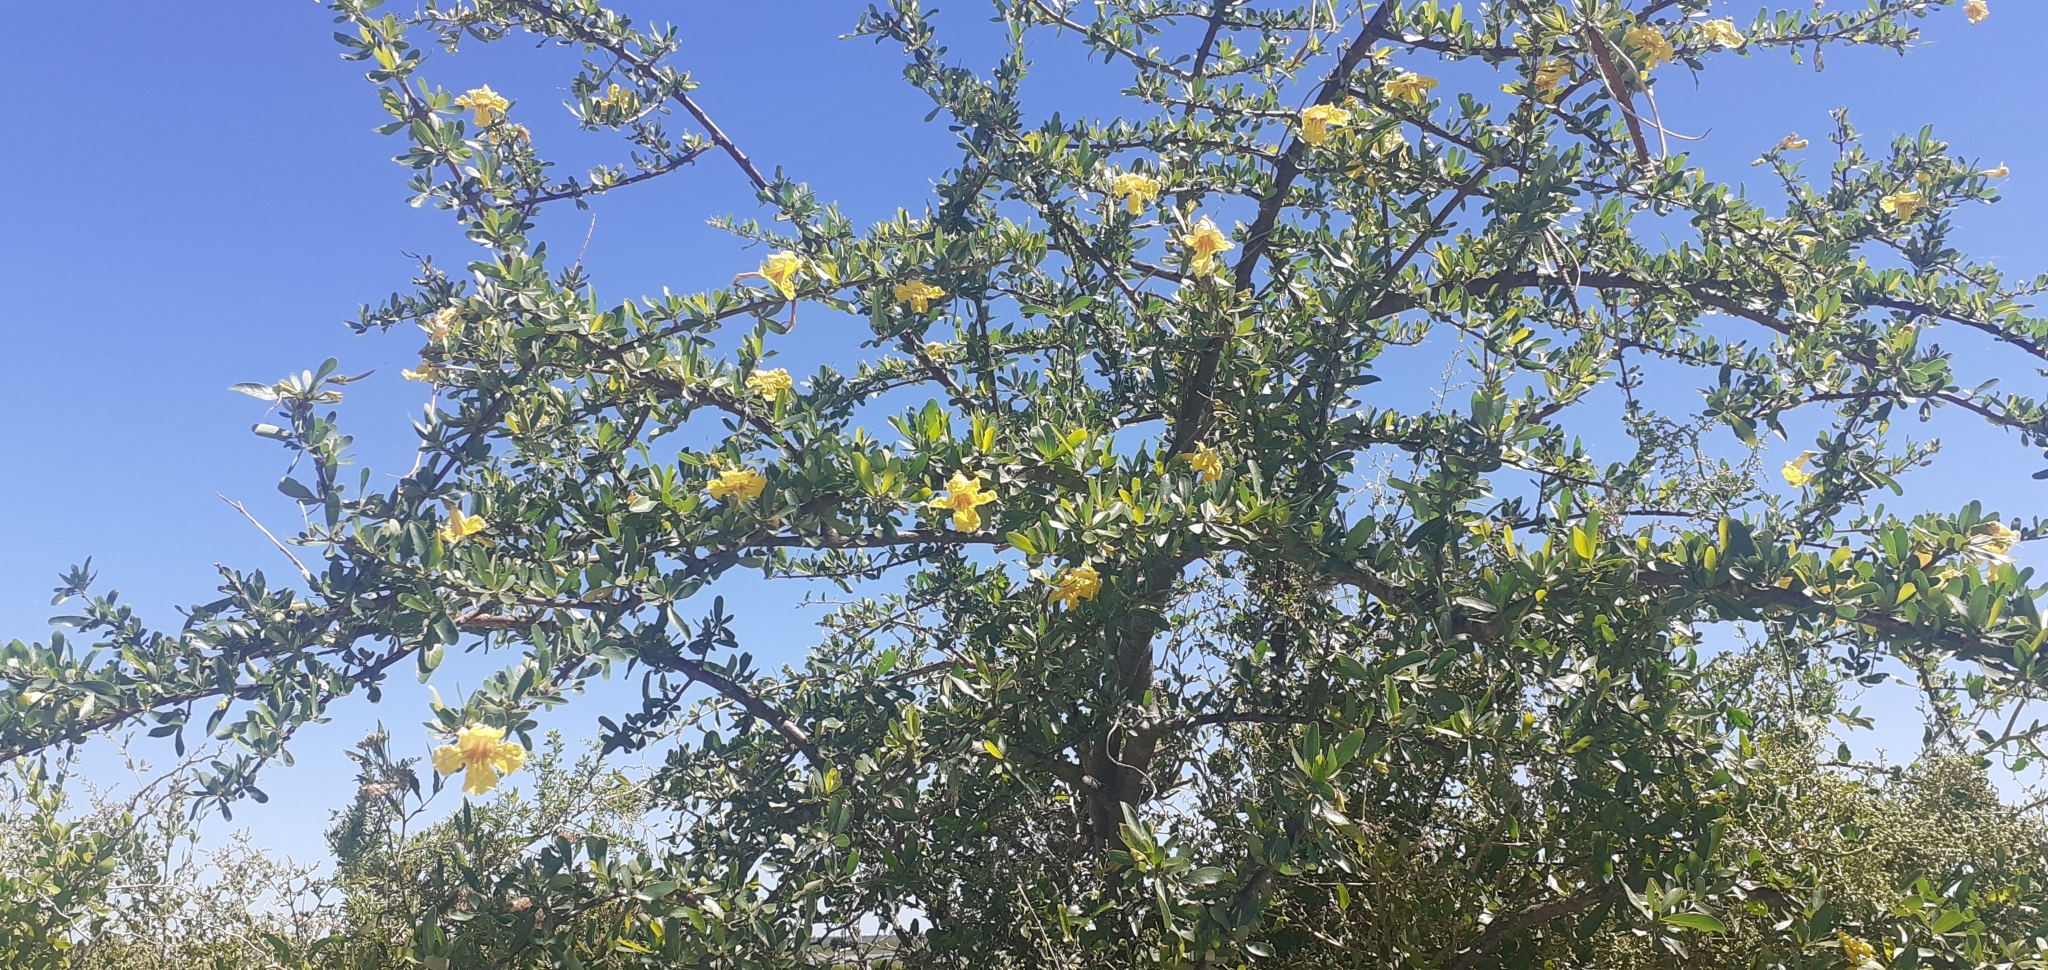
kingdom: Plantae
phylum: Tracheophyta
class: Magnoliopsida
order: Lamiales
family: Bignoniaceae
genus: Tabebuia
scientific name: Tabebuia nodosa
